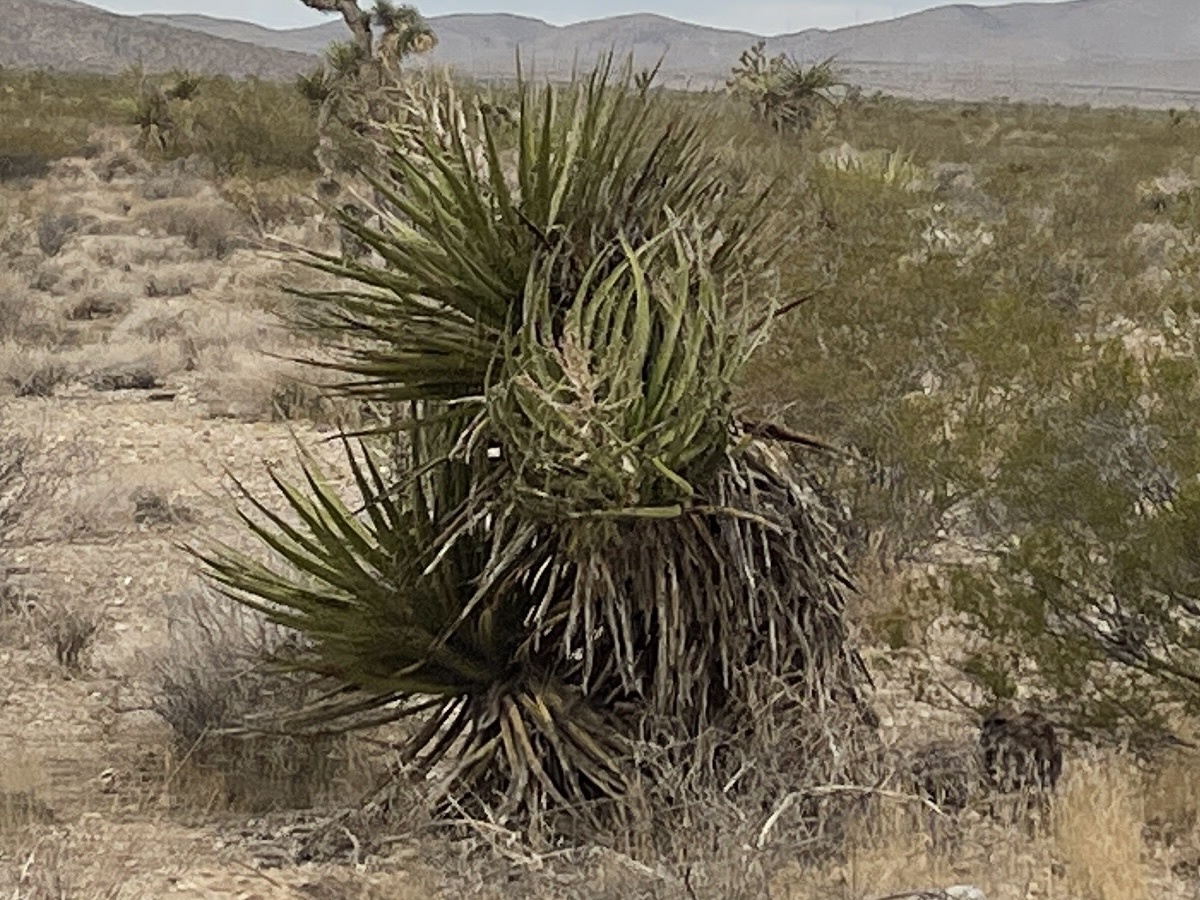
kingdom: Plantae
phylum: Tracheophyta
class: Liliopsida
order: Asparagales
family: Asparagaceae
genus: Yucca
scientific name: Yucca schidigera
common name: Mojave yucca
